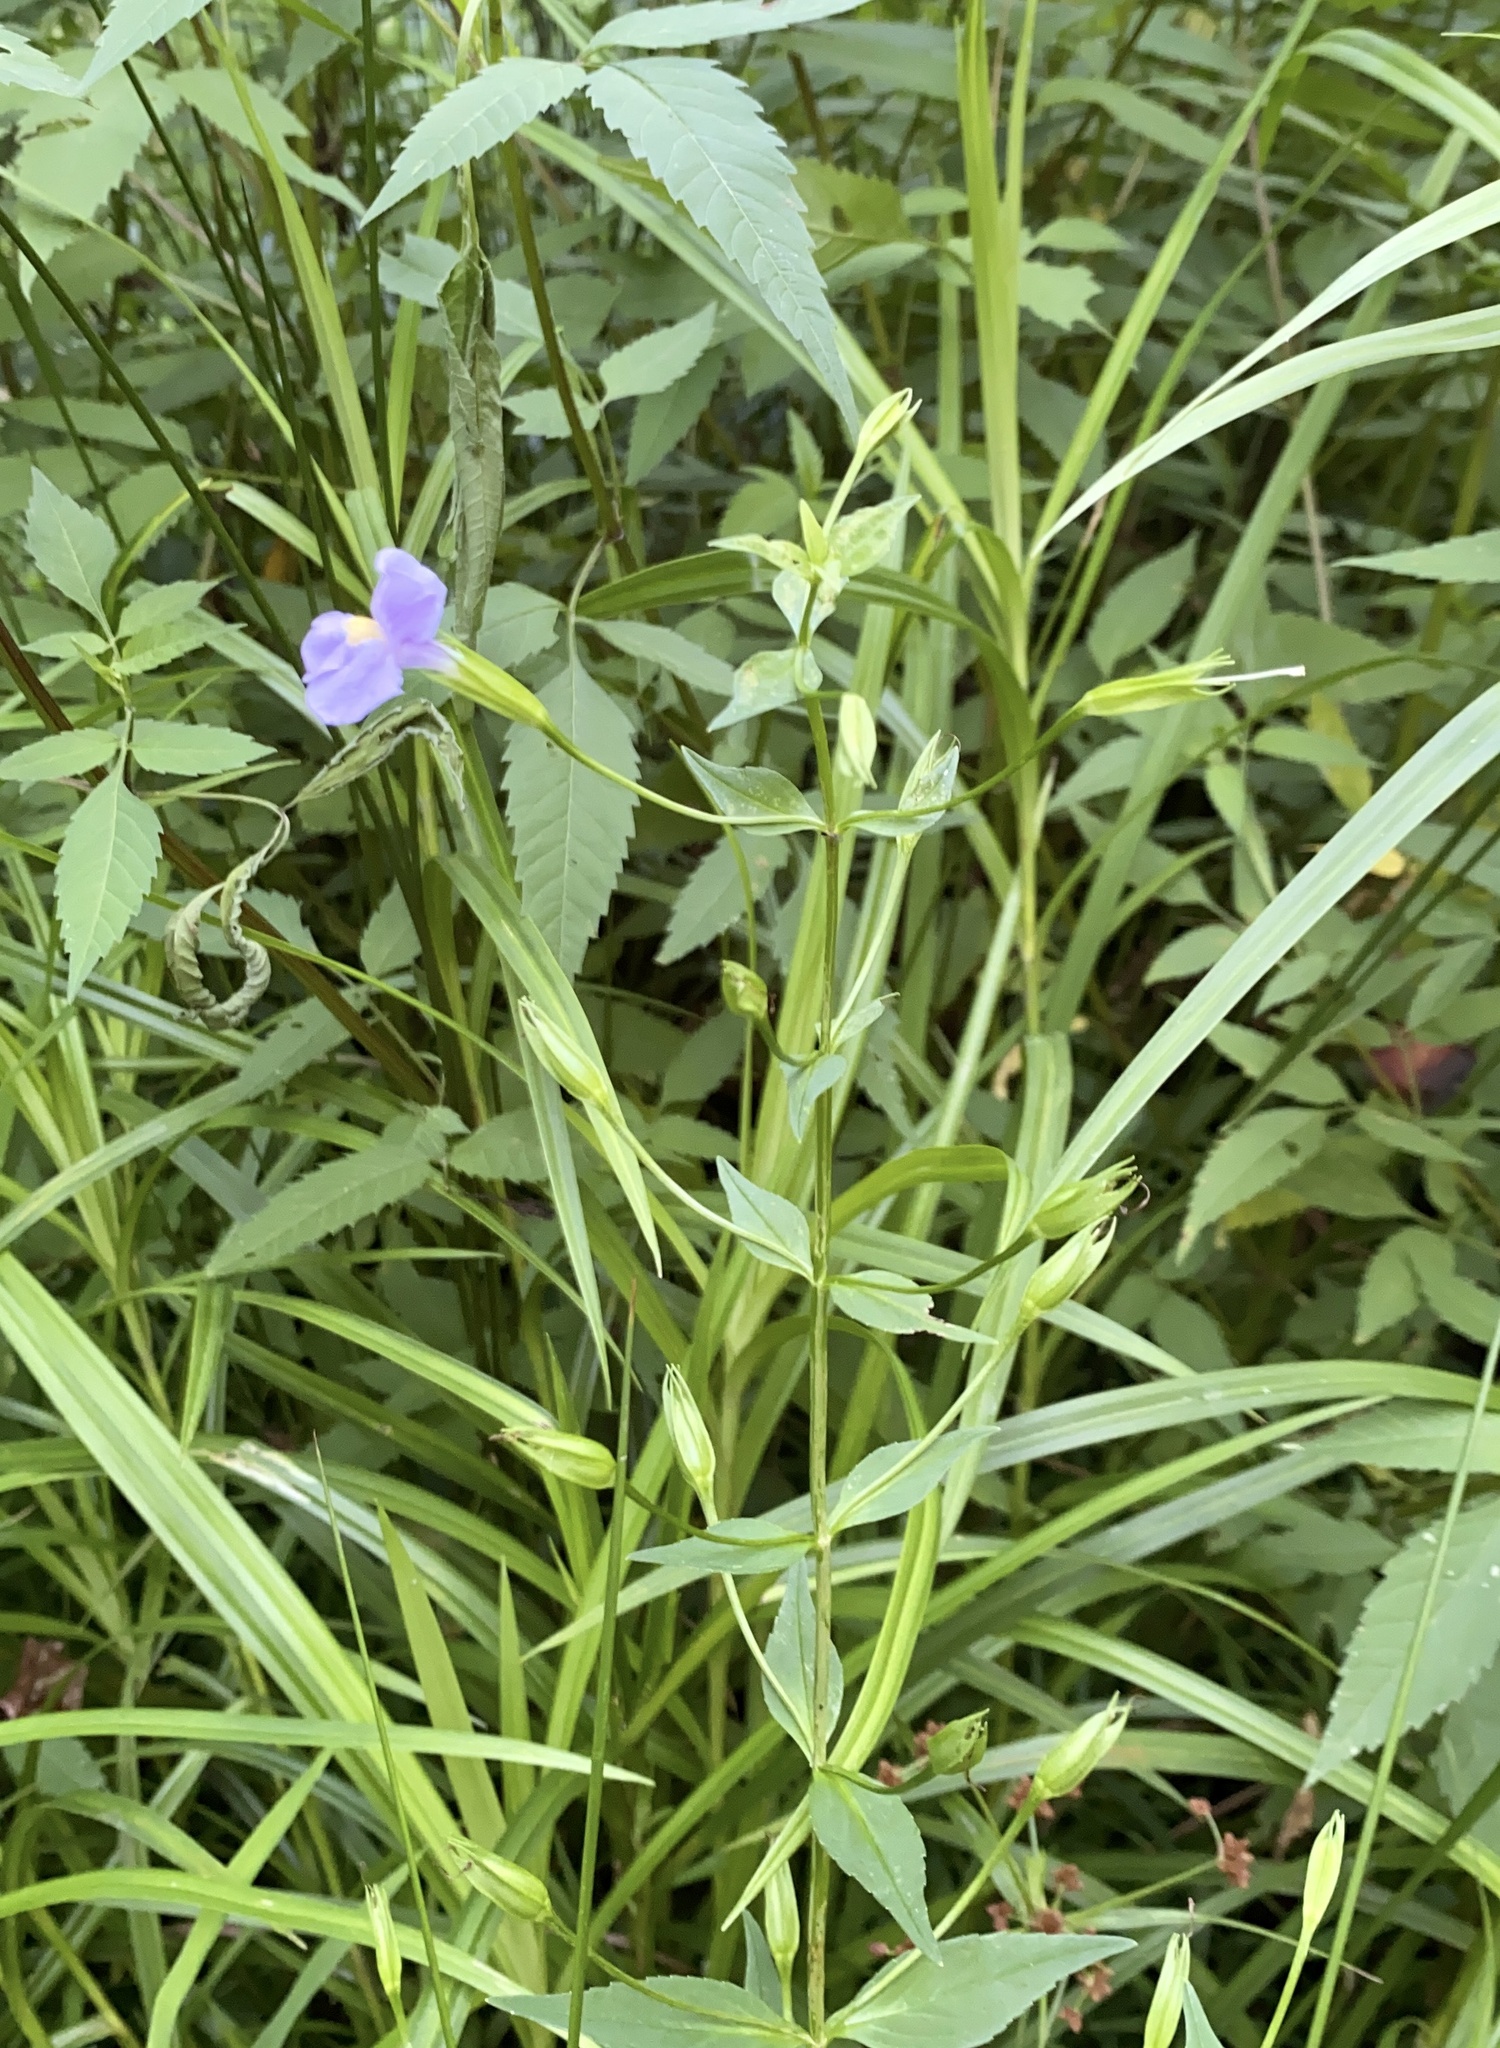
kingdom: Plantae
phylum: Tracheophyta
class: Magnoliopsida
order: Lamiales
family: Phrymaceae
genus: Mimulus
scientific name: Mimulus ringens
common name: Allegheny monkeyflower
